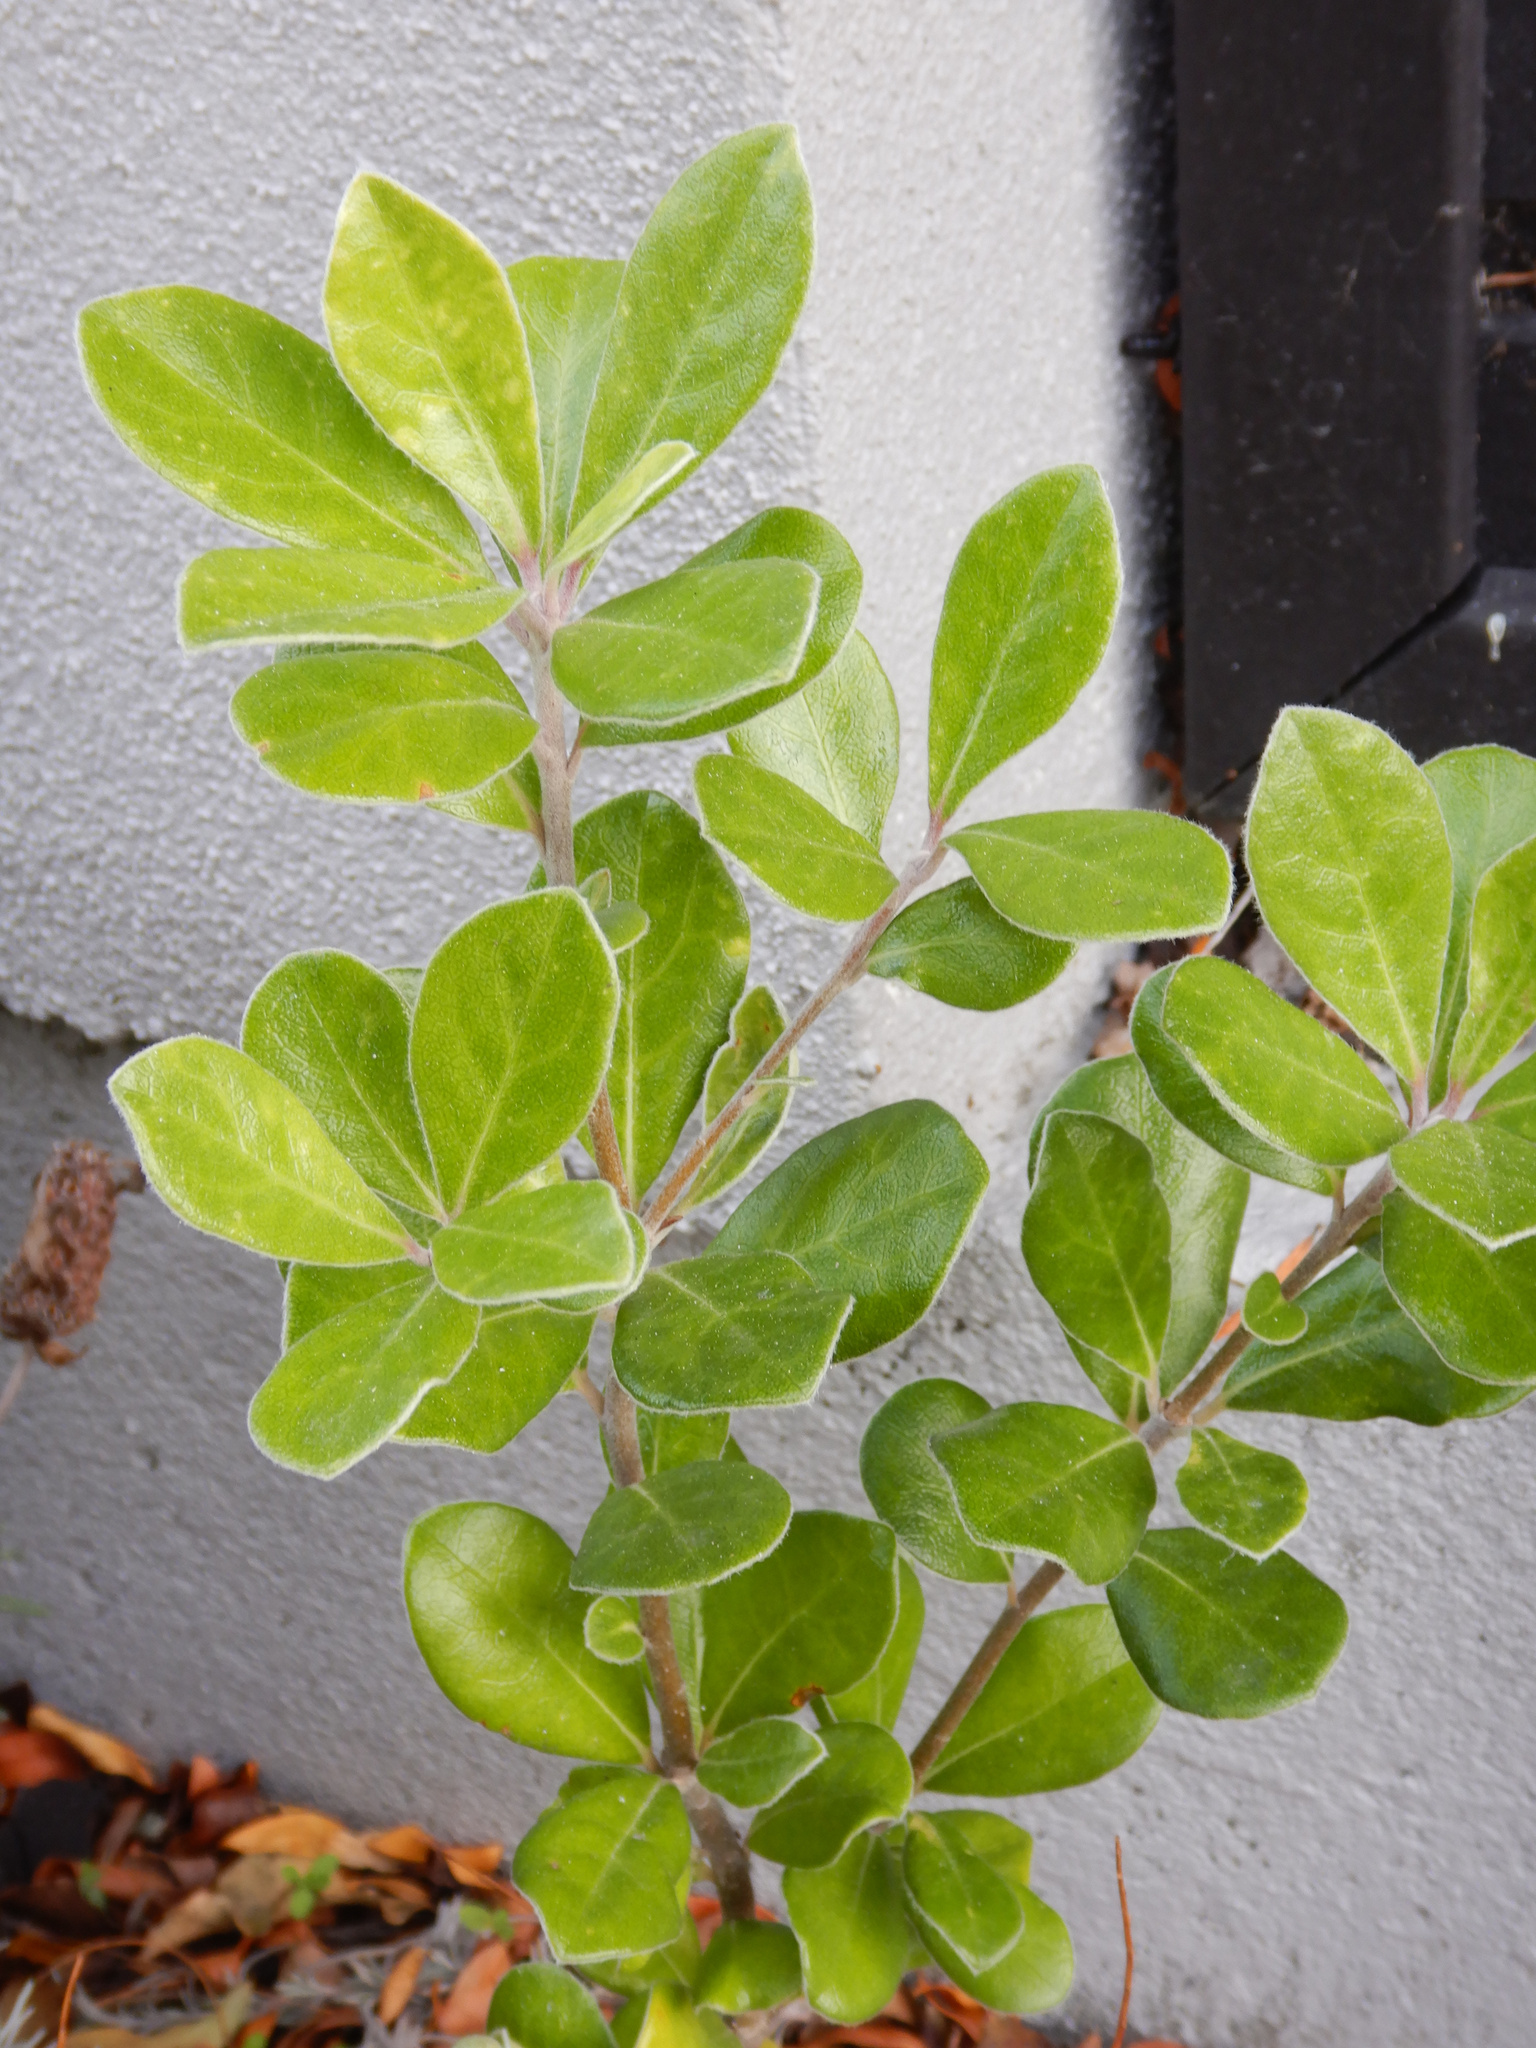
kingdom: Plantae
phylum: Tracheophyta
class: Magnoliopsida
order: Apiales
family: Pittosporaceae
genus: Pittosporum
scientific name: Pittosporum crassifolium
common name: Karo
